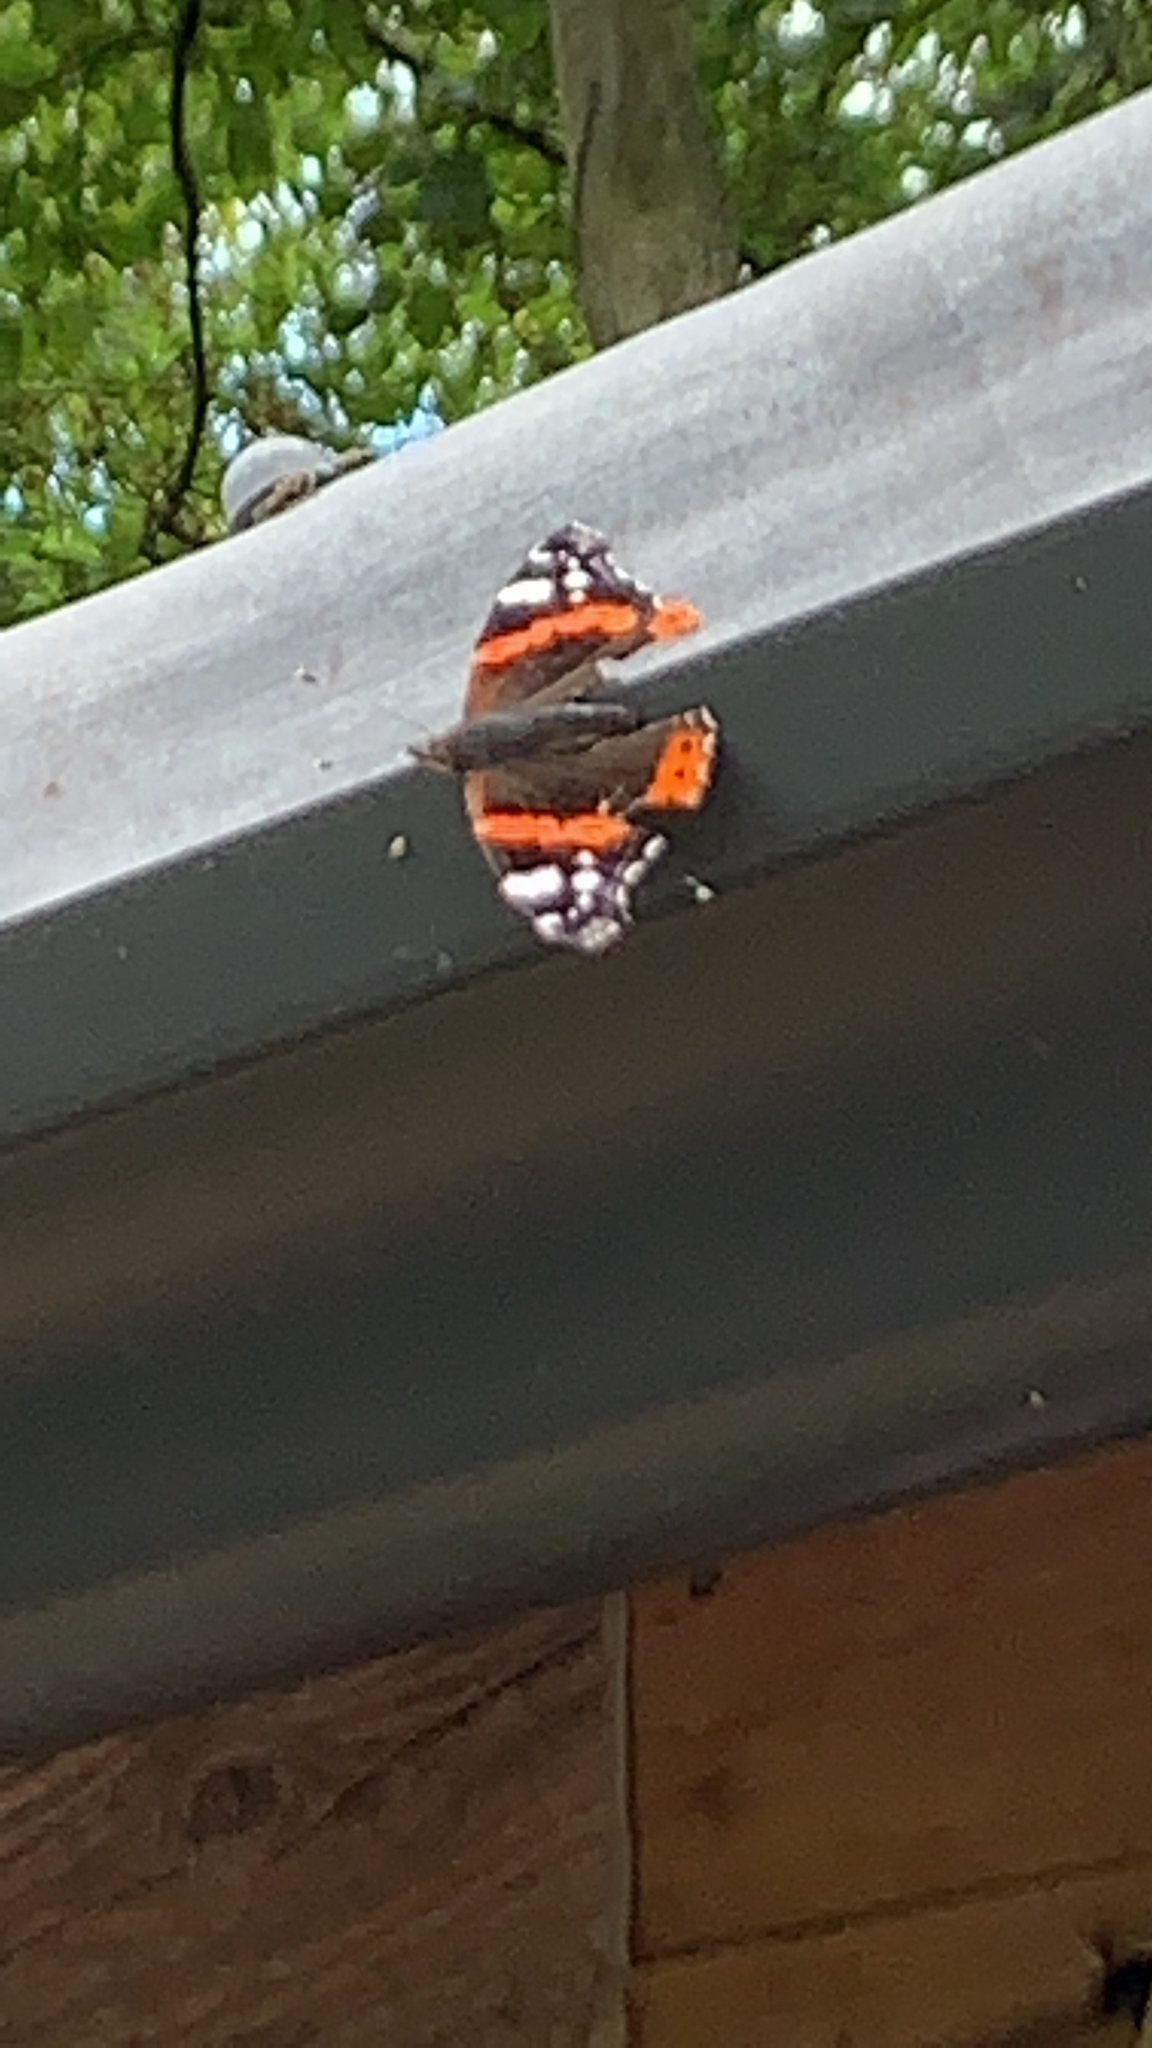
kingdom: Animalia
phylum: Arthropoda
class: Insecta
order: Lepidoptera
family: Nymphalidae
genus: Vanessa
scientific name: Vanessa atalanta
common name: Red admiral
